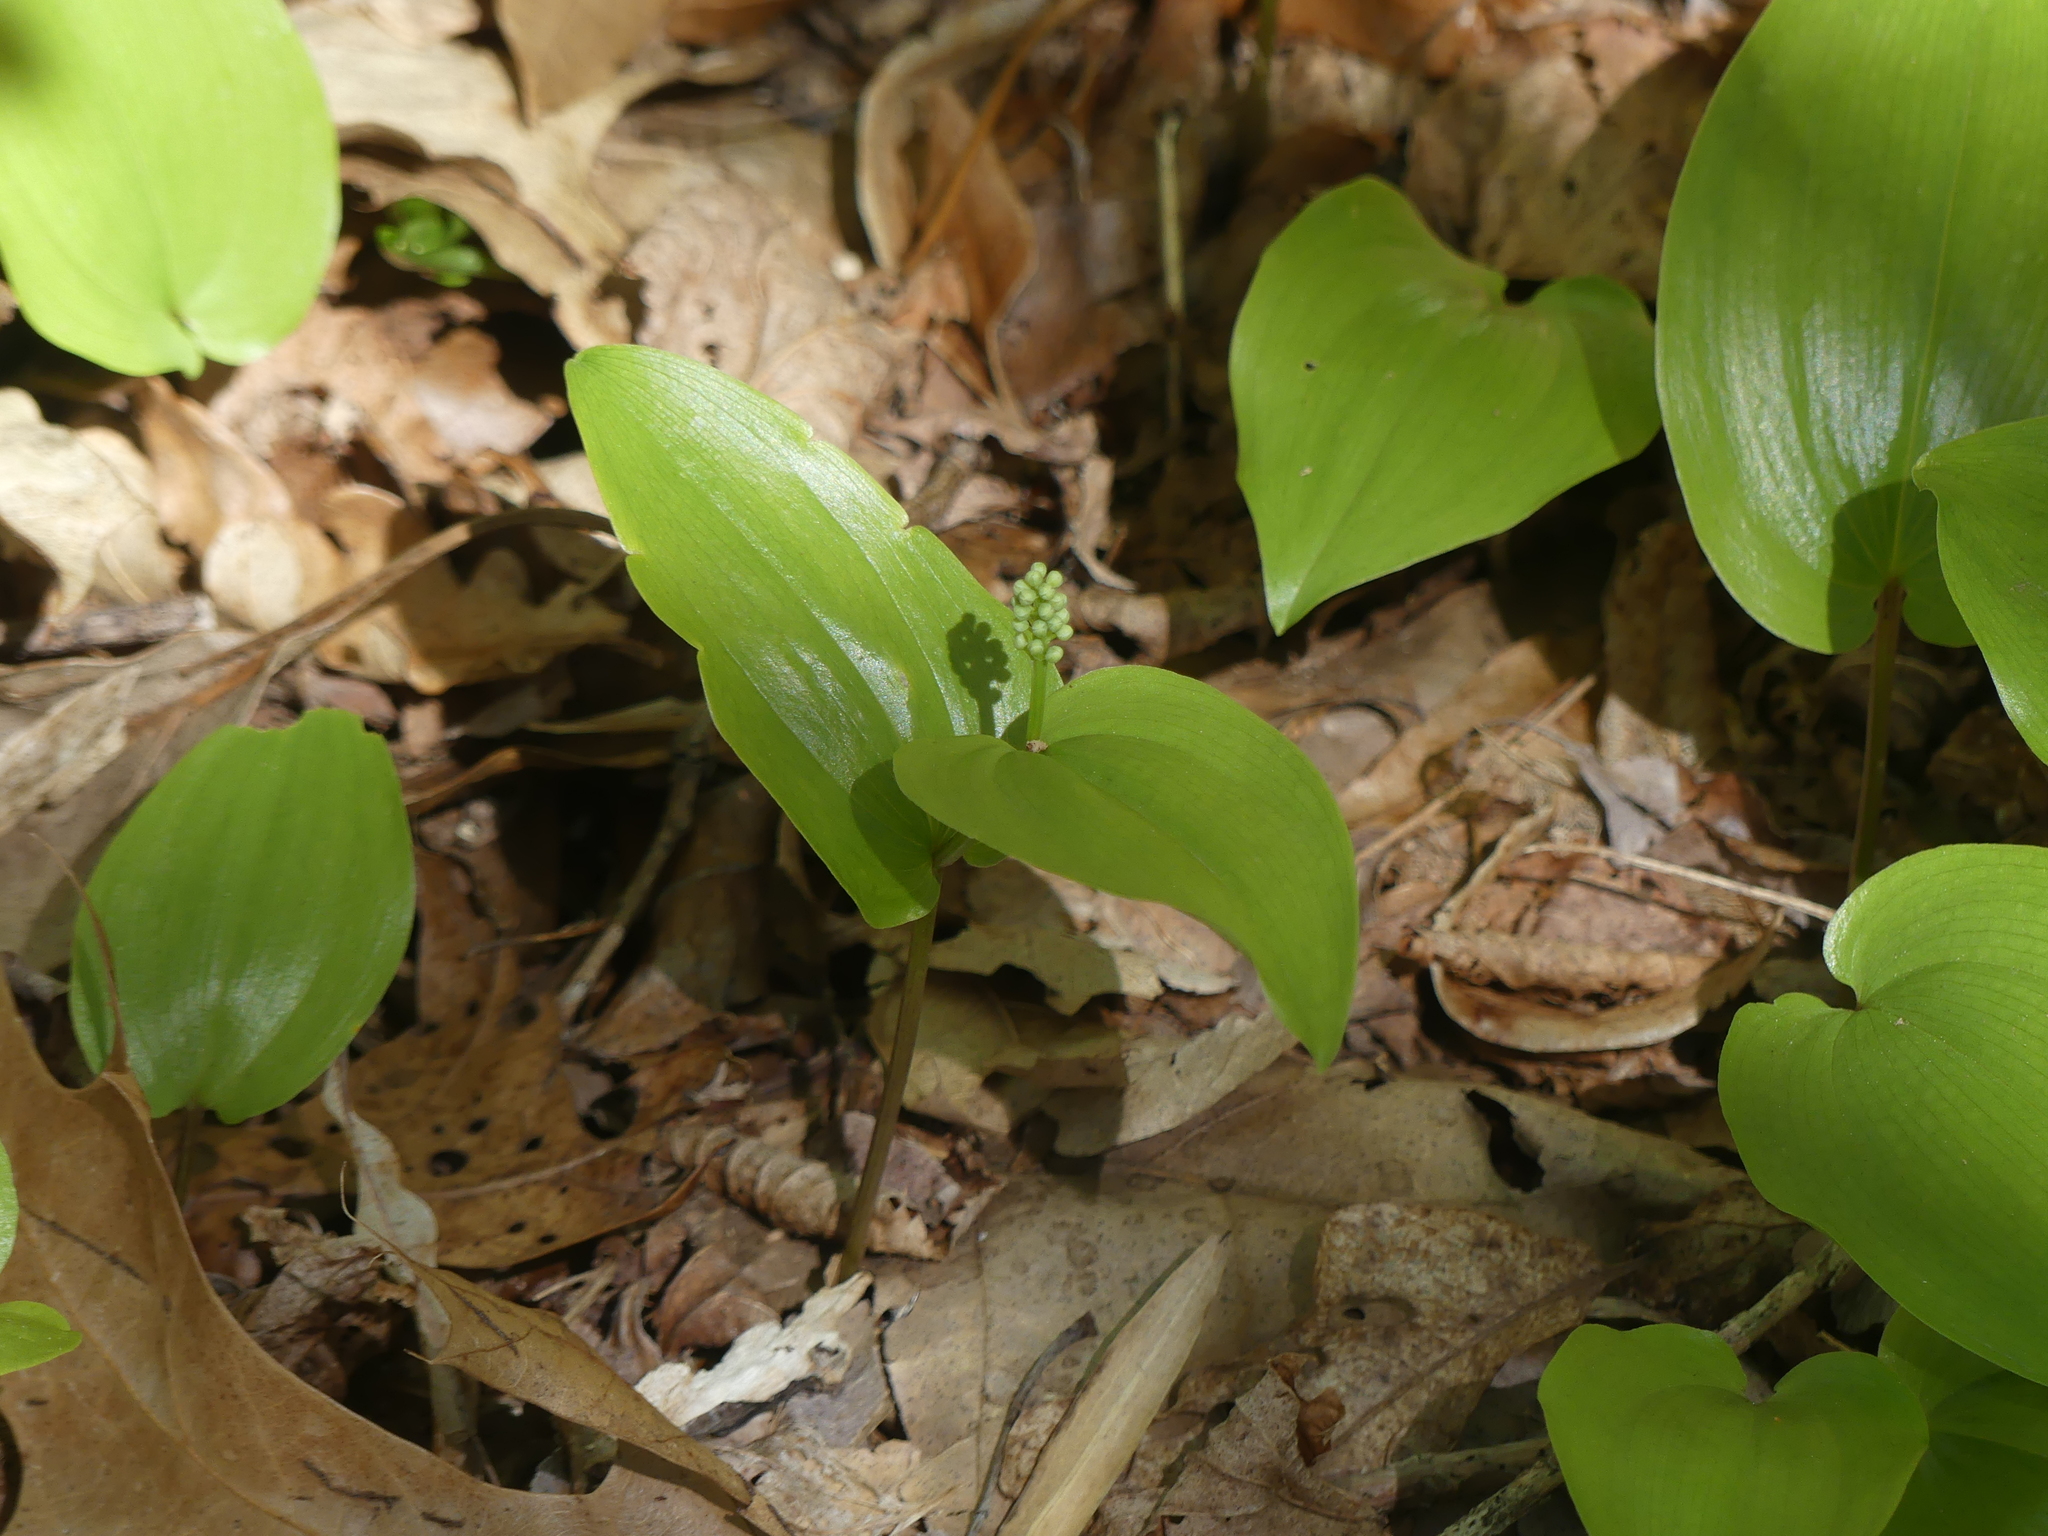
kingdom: Plantae
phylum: Tracheophyta
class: Liliopsida
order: Asparagales
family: Asparagaceae
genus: Maianthemum
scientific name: Maianthemum canadense
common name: False lily-of-the-valley
